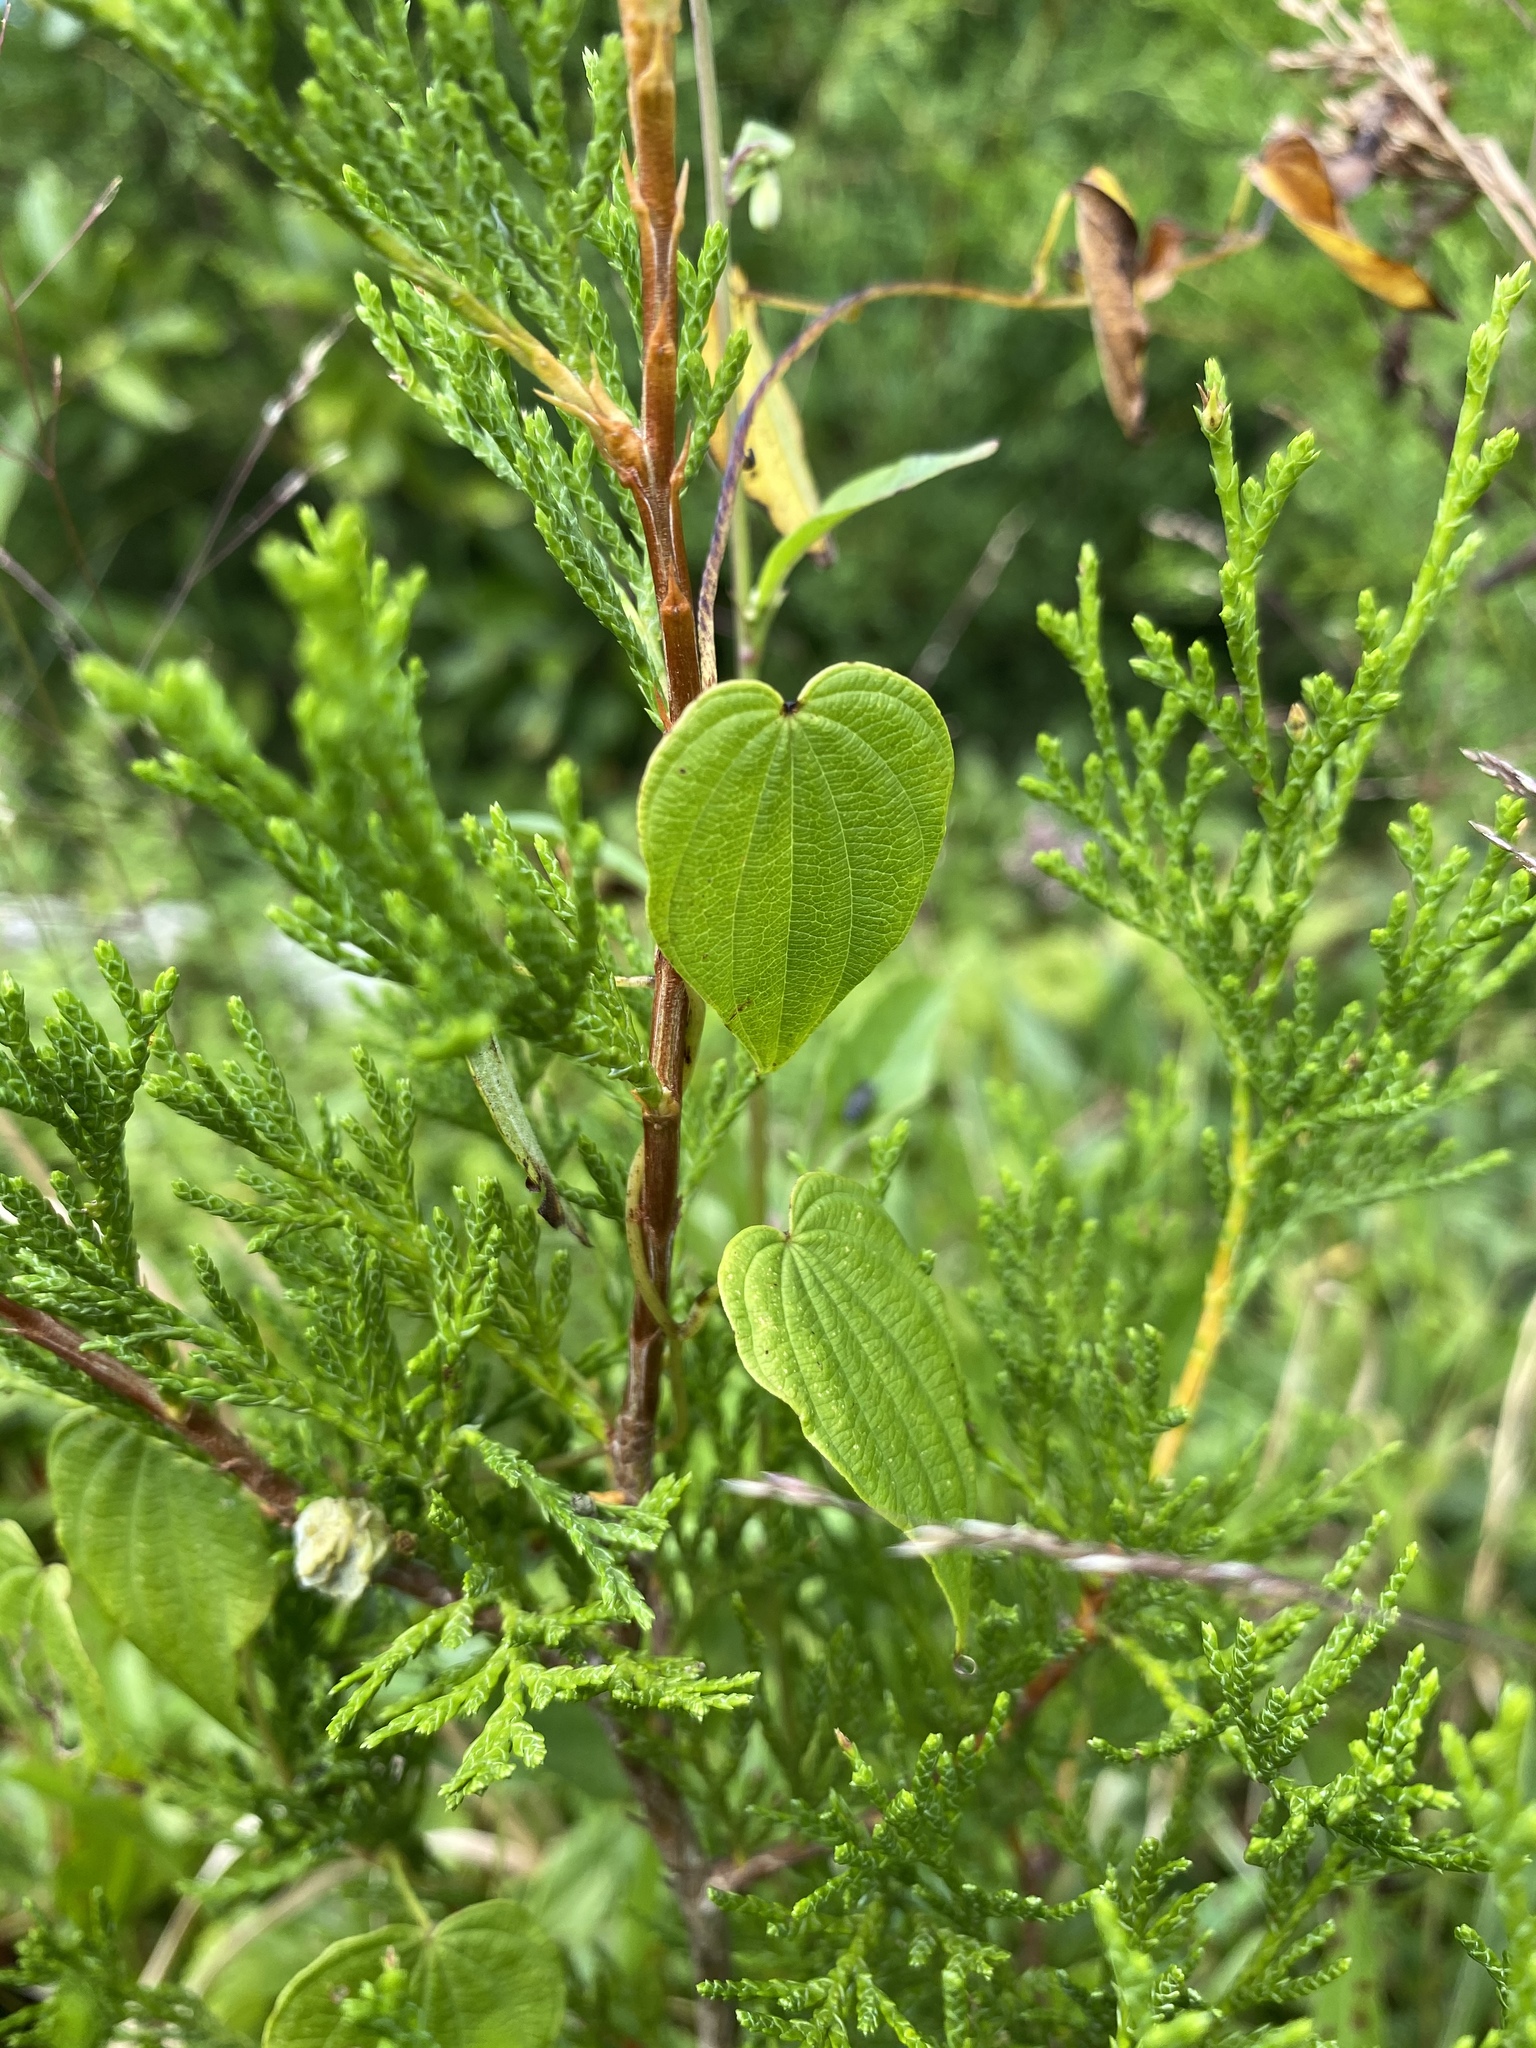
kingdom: Plantae
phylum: Tracheophyta
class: Liliopsida
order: Dioscoreales
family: Dioscoreaceae
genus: Dioscorea
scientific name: Dioscorea villosa
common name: Wild yam
